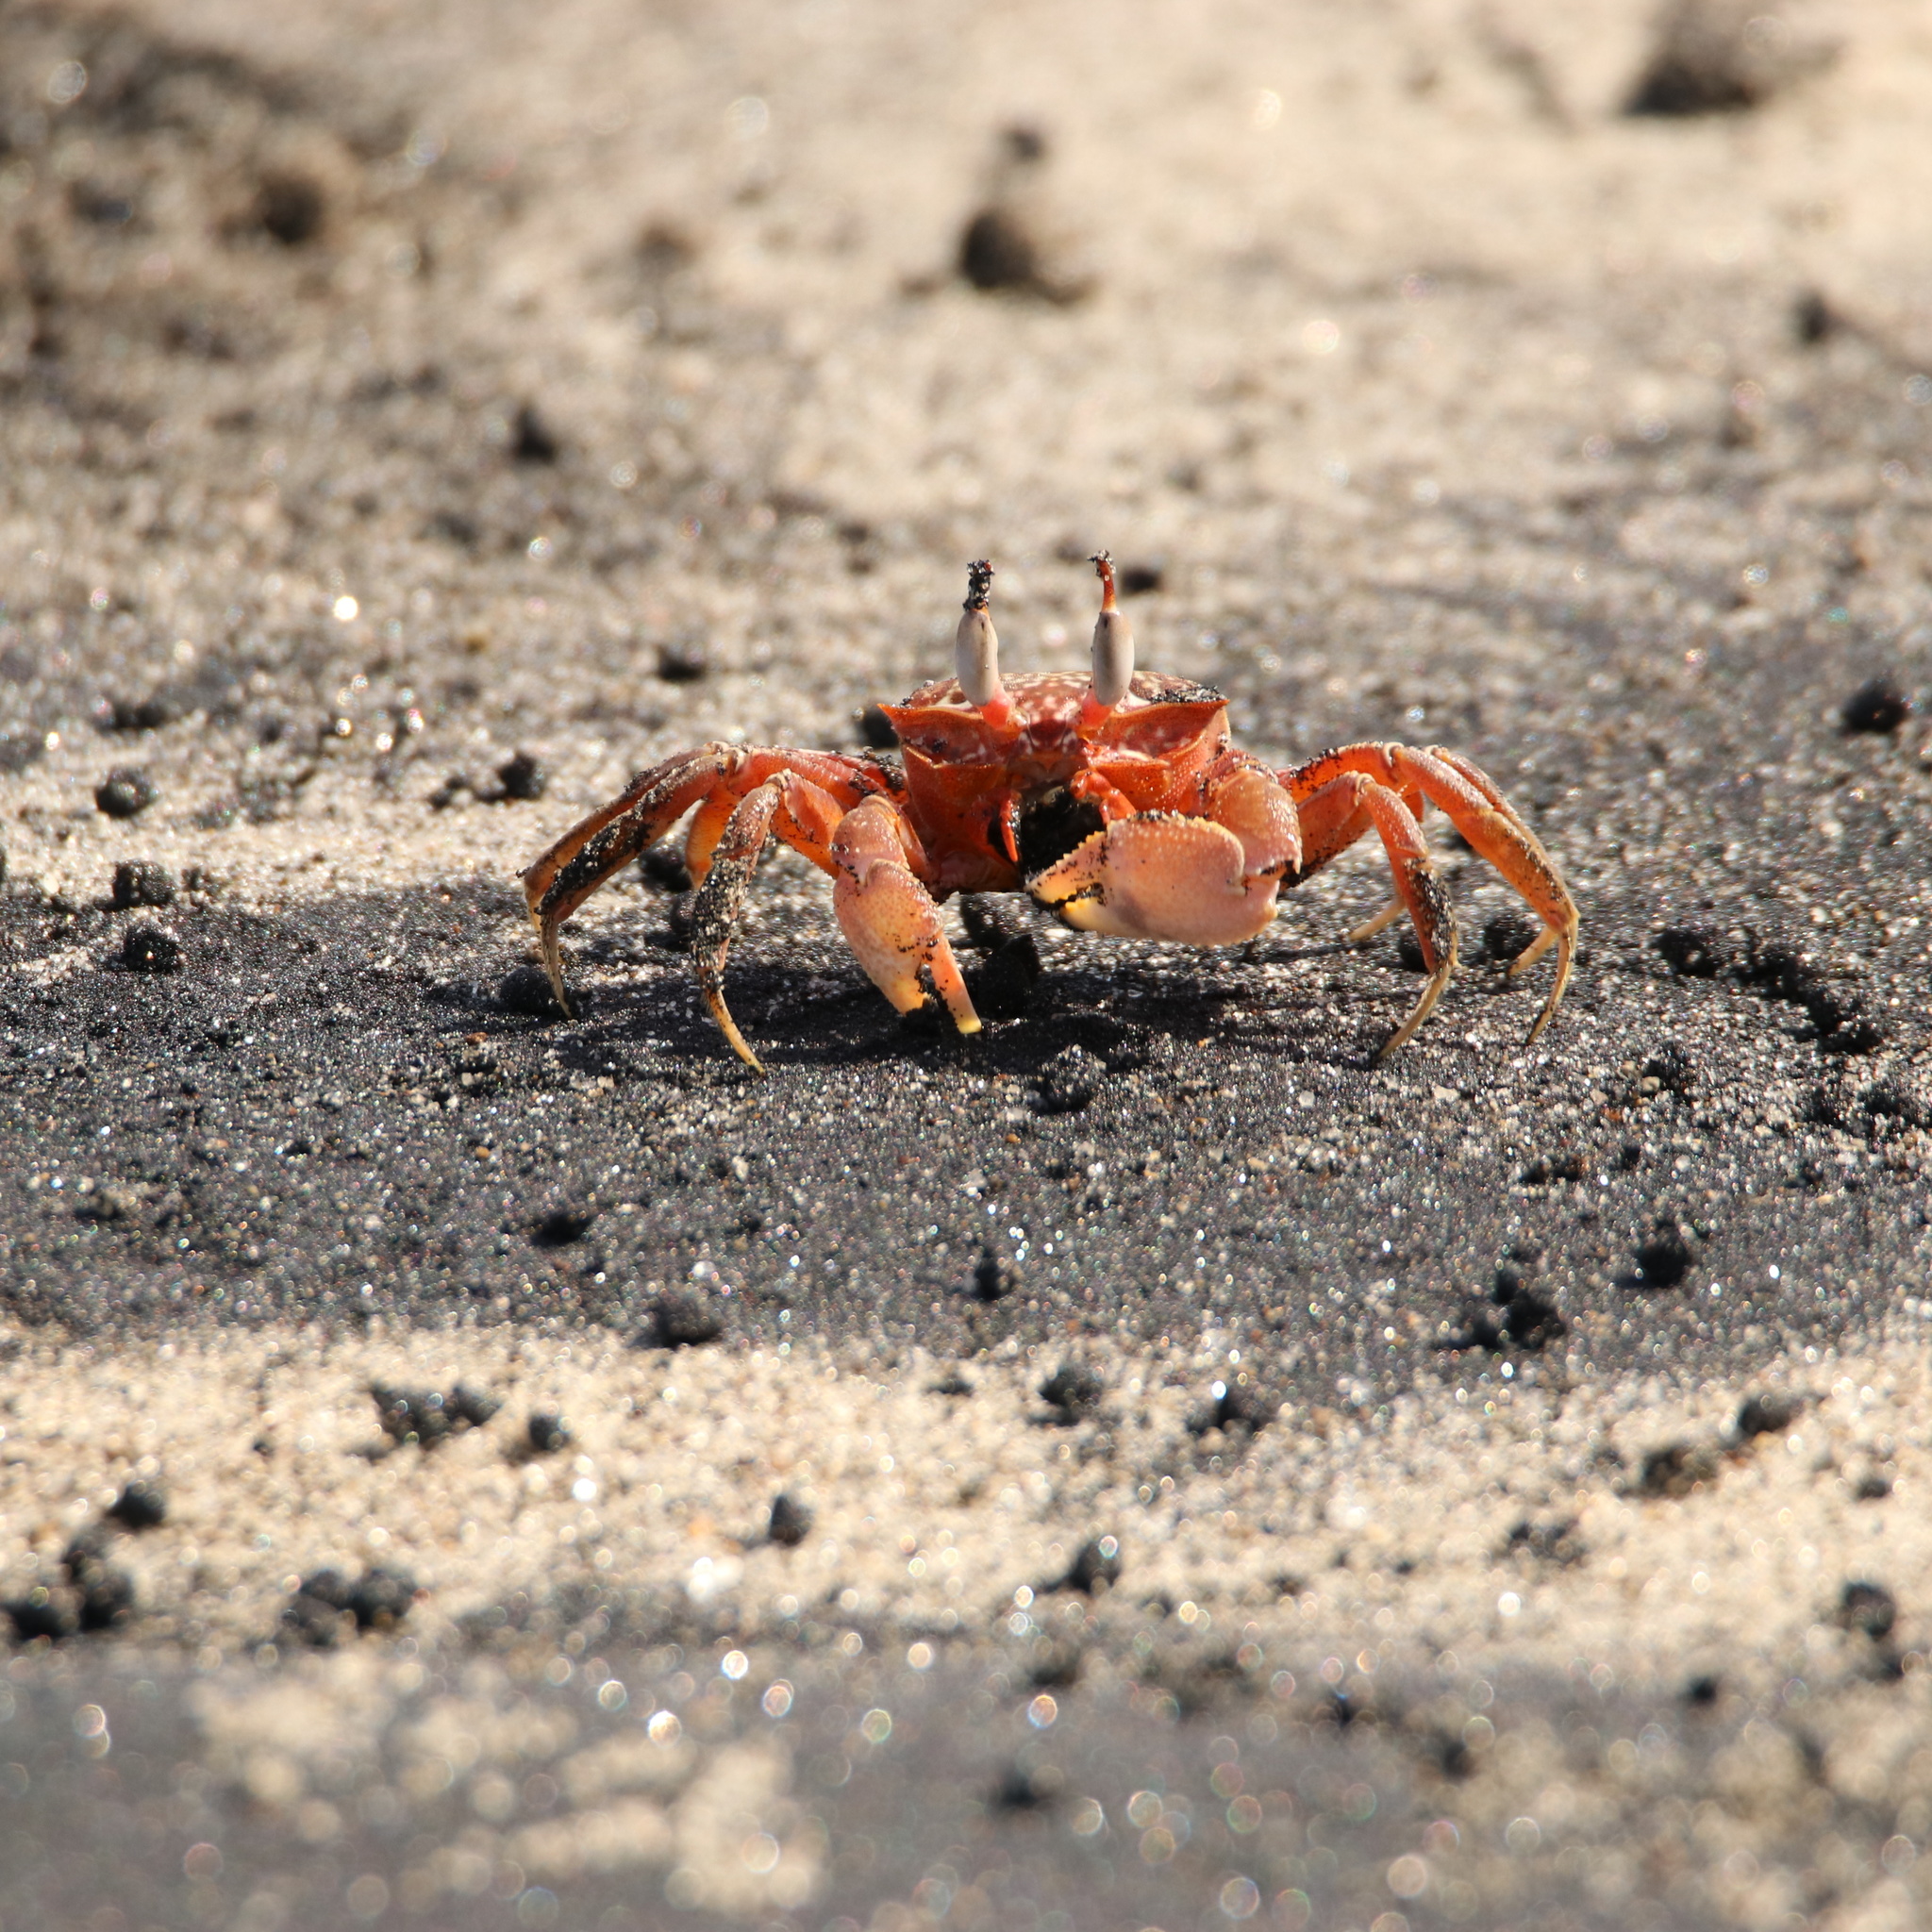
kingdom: Animalia
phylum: Arthropoda
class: Malacostraca
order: Decapoda
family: Ocypodidae
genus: Ocypode
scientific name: Ocypode gaudichaudii
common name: Pacific ghost crab
